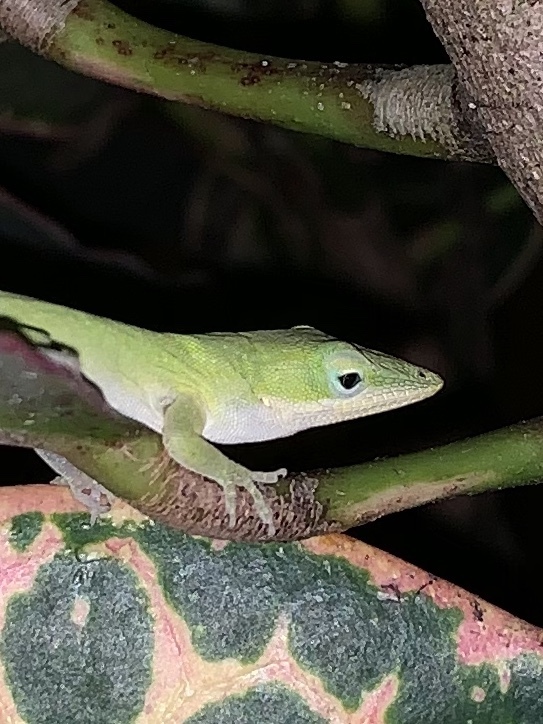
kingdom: Animalia
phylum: Chordata
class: Squamata
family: Dactyloidae
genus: Anolis
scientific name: Anolis carolinensis
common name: Green anole
